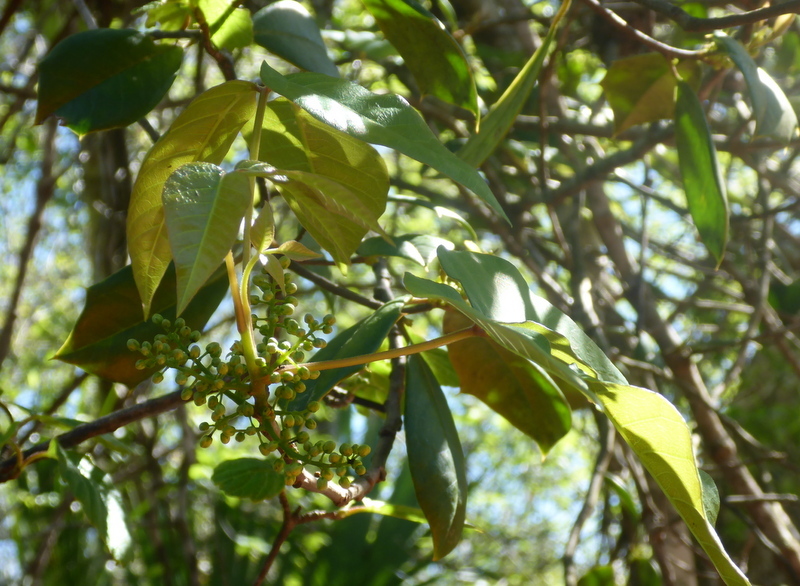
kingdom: Plantae
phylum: Tracheophyta
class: Magnoliopsida
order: Sapindales
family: Anacardiaceae
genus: Toxicodendron
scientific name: Toxicodendron radicans
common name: Poison ivy
